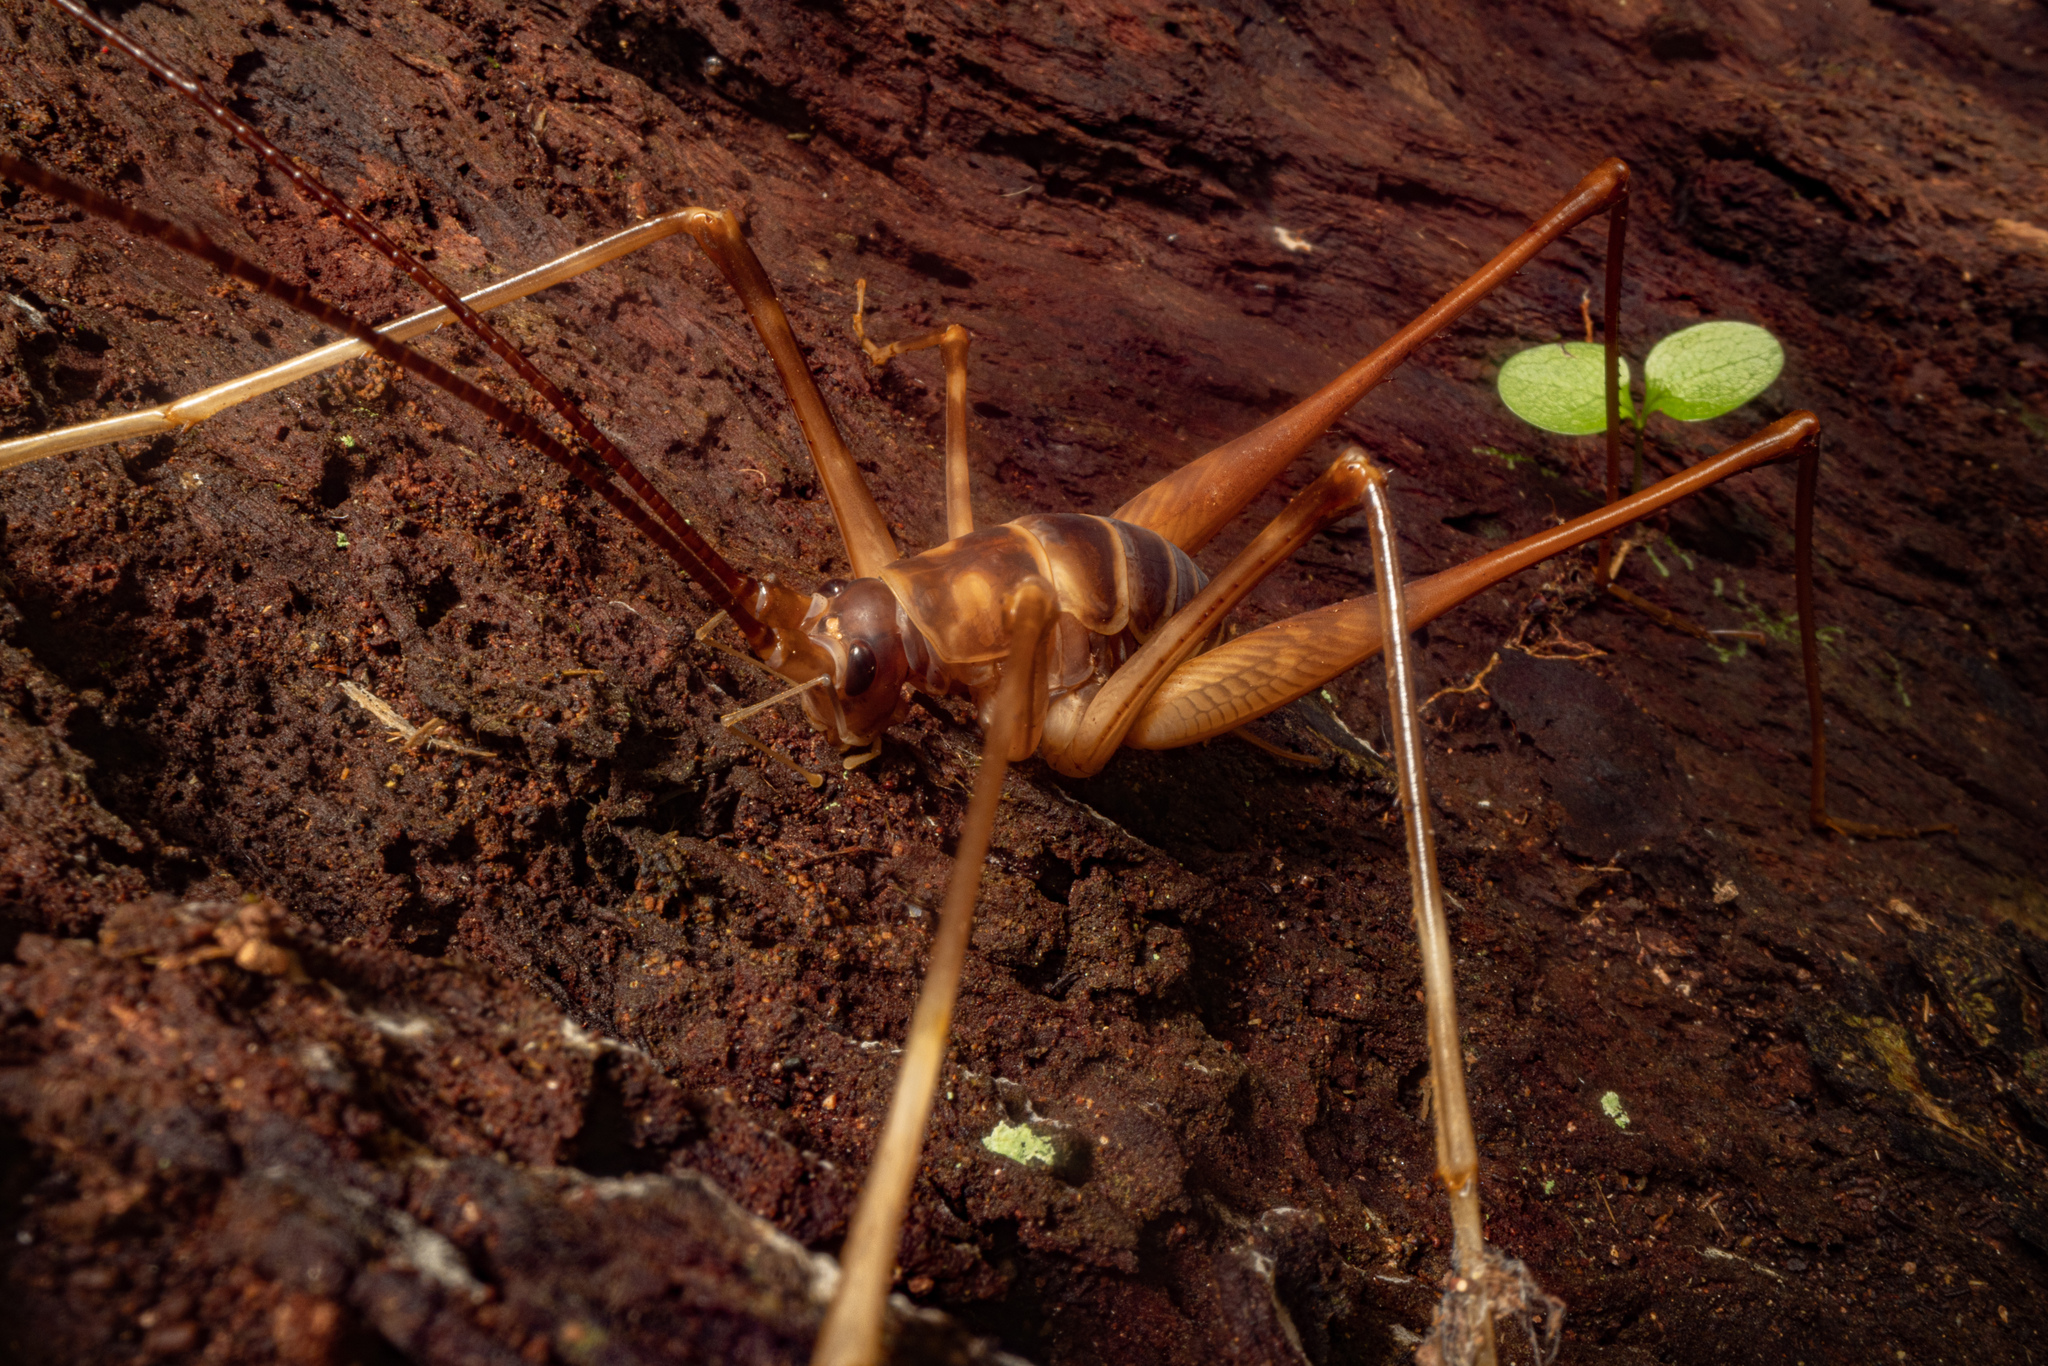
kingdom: Animalia
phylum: Arthropoda
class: Insecta
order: Orthoptera
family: Rhaphidophoridae
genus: Pachyrhamma
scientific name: Pachyrhamma acanthocera
